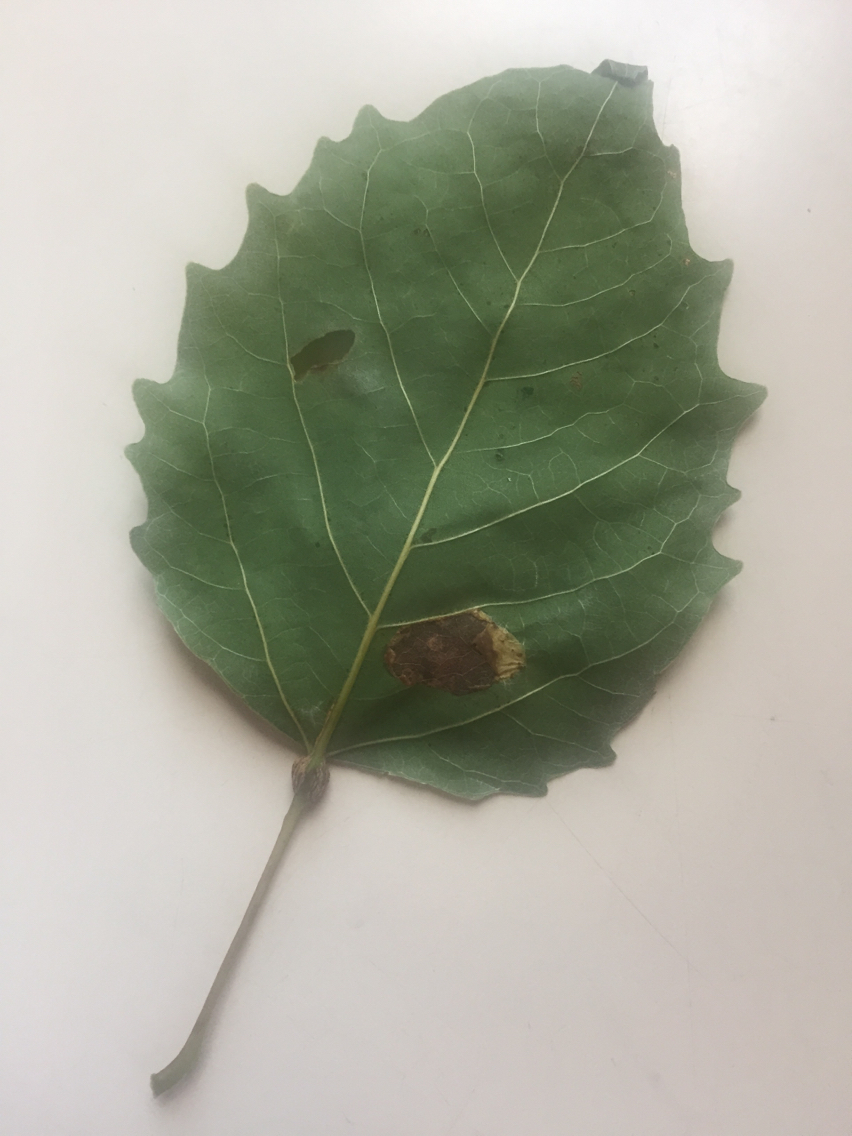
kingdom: Animalia
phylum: Arthropoda
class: Insecta
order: Lepidoptera
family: Nepticulidae
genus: Ectoedemia
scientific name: Ectoedemia populella
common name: Aspen petiole gall moth
